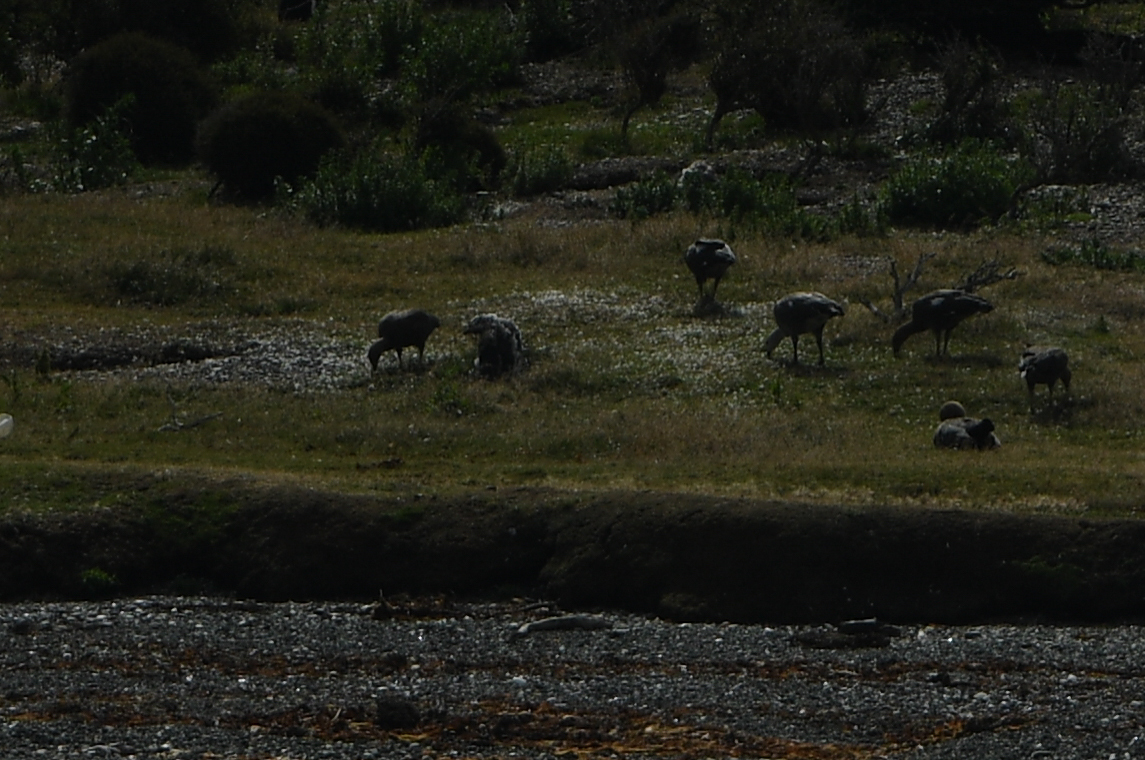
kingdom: Animalia
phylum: Chordata
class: Aves
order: Anseriformes
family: Anatidae
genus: Chloephaga
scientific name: Chloephaga picta
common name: Upland goose
